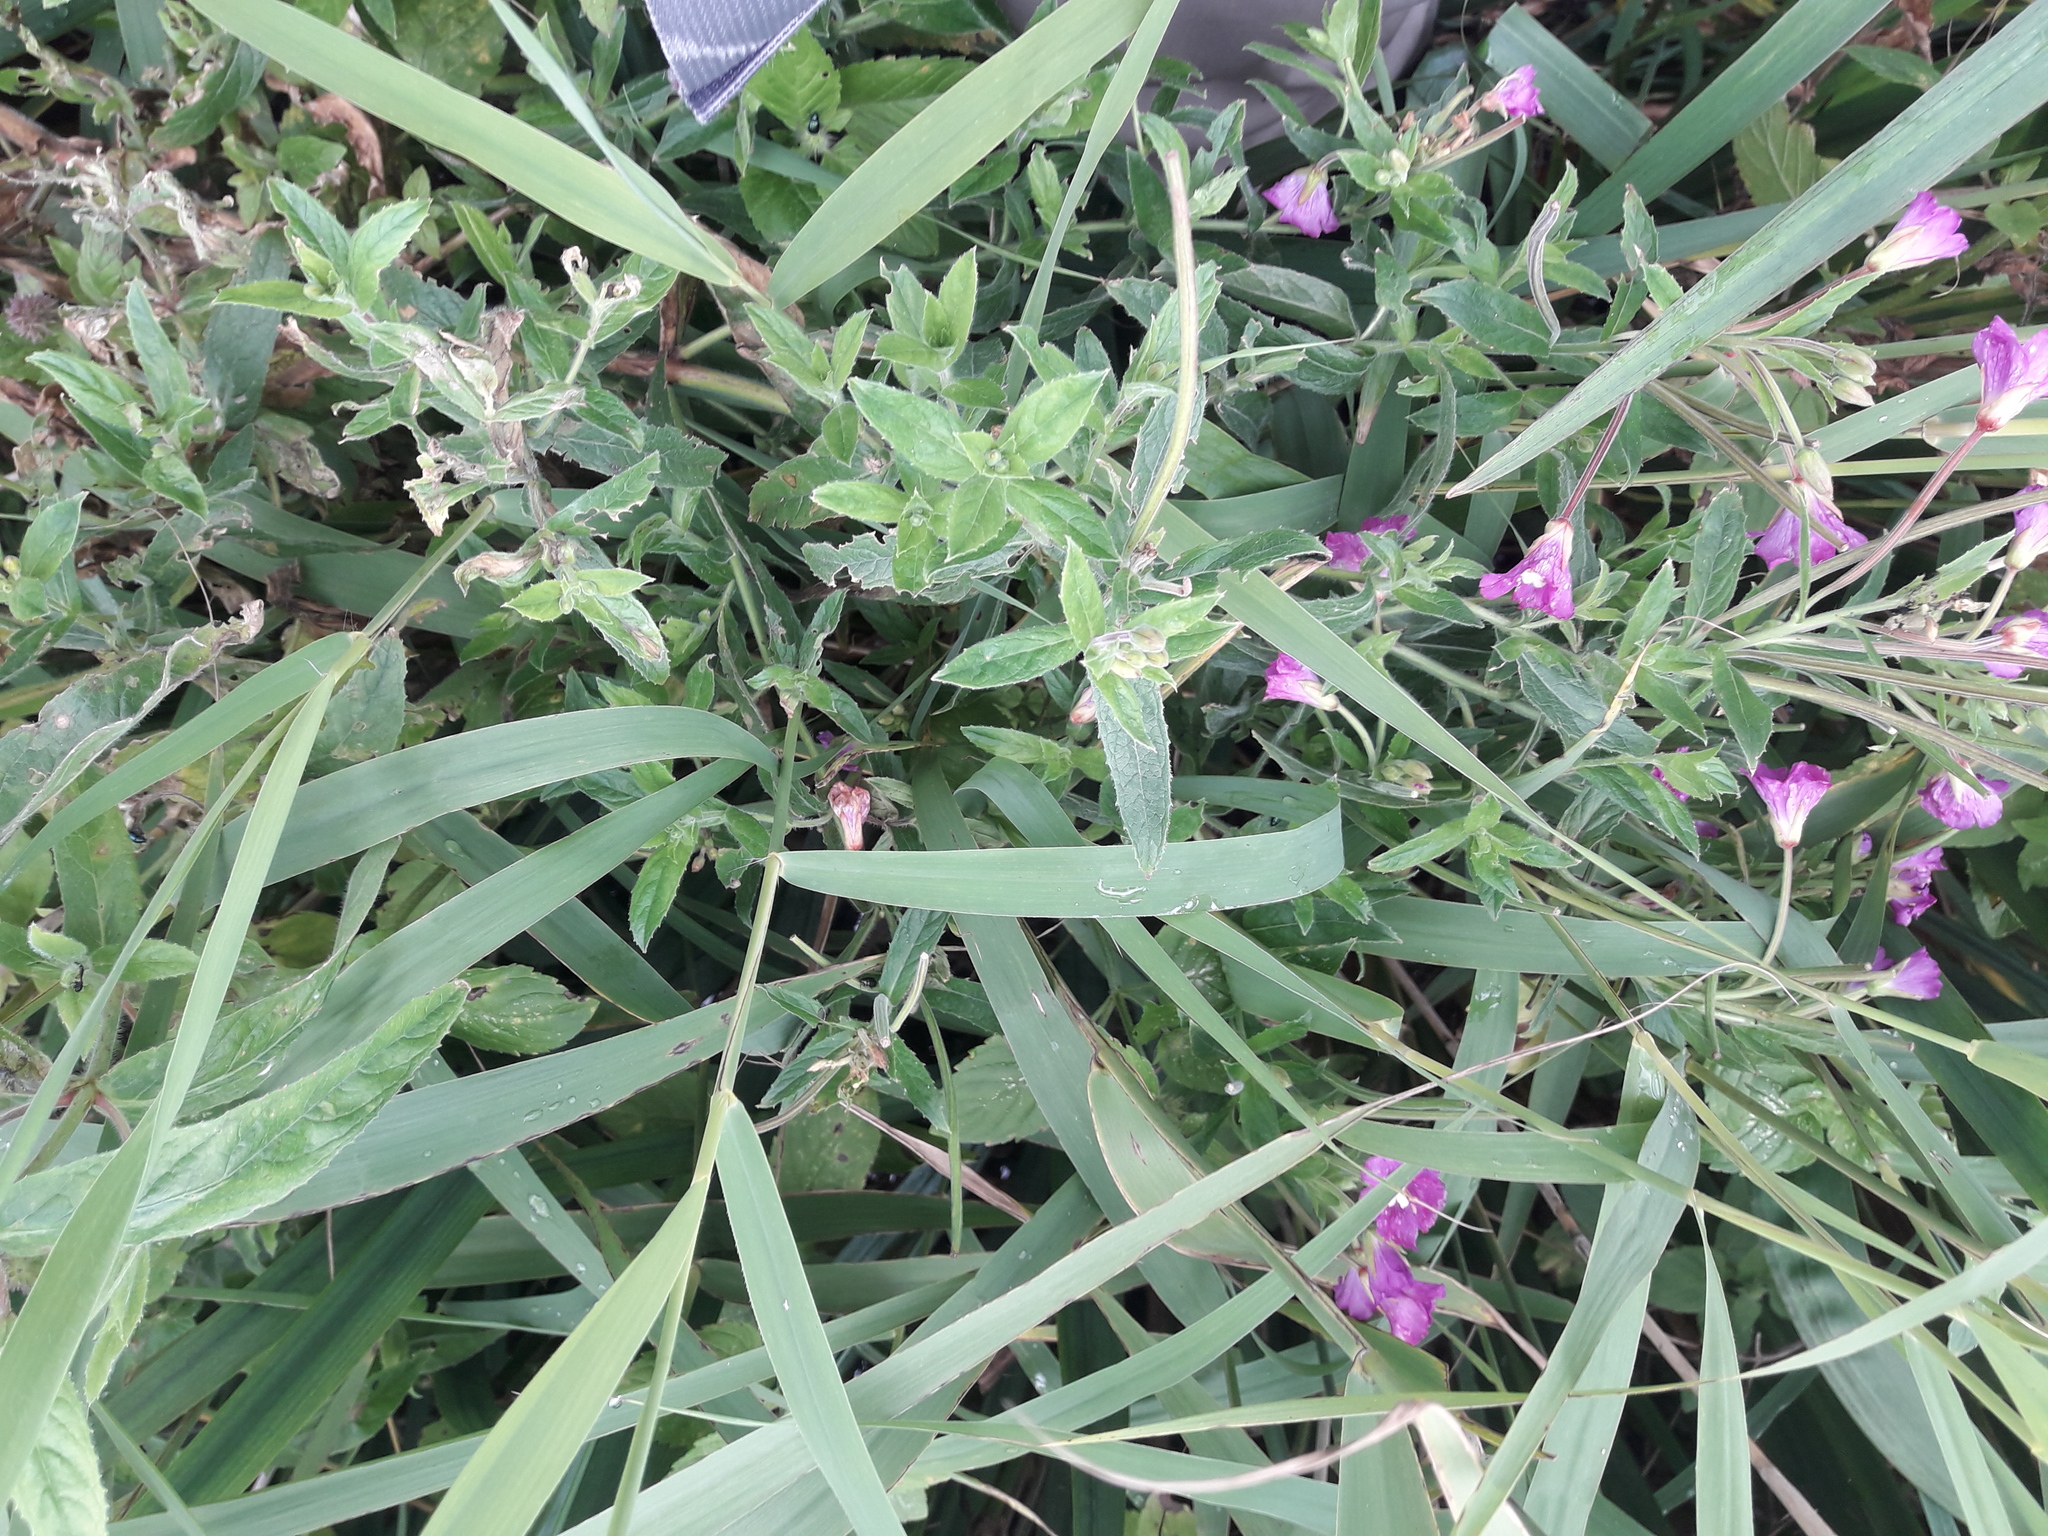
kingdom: Plantae
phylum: Tracheophyta
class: Liliopsida
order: Poales
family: Poaceae
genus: Phragmites
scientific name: Phragmites australis
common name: Common reed
